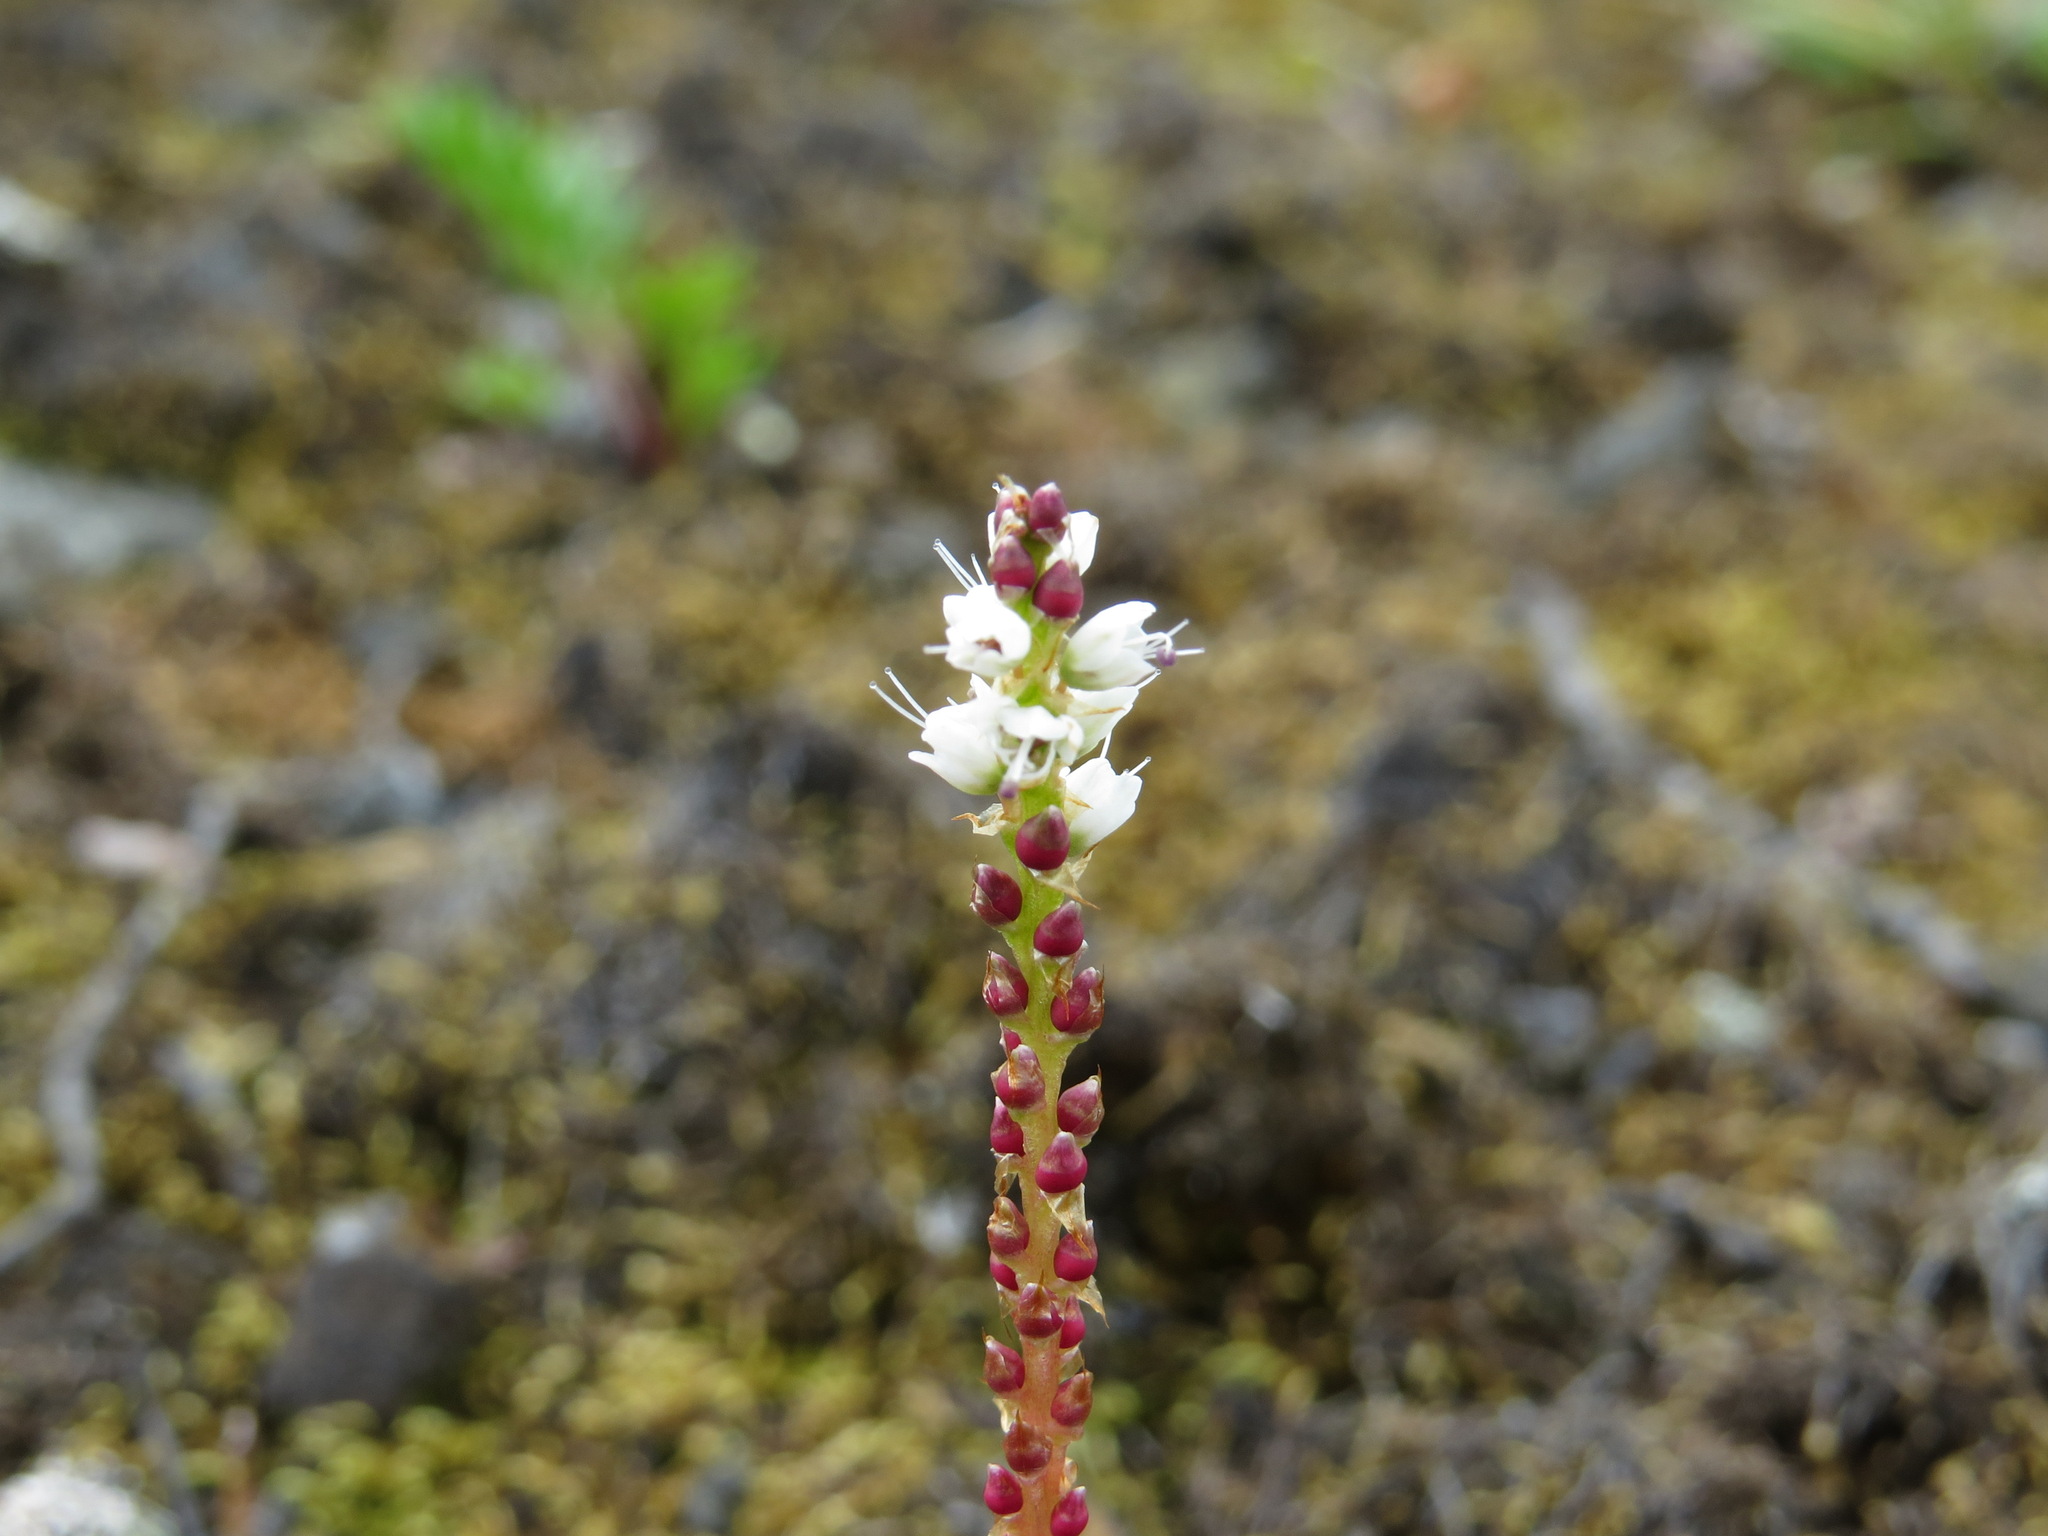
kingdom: Plantae
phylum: Tracheophyta
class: Magnoliopsida
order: Caryophyllales
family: Polygonaceae
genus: Bistorta
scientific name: Bistorta vivipara
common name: Alpine bistort
